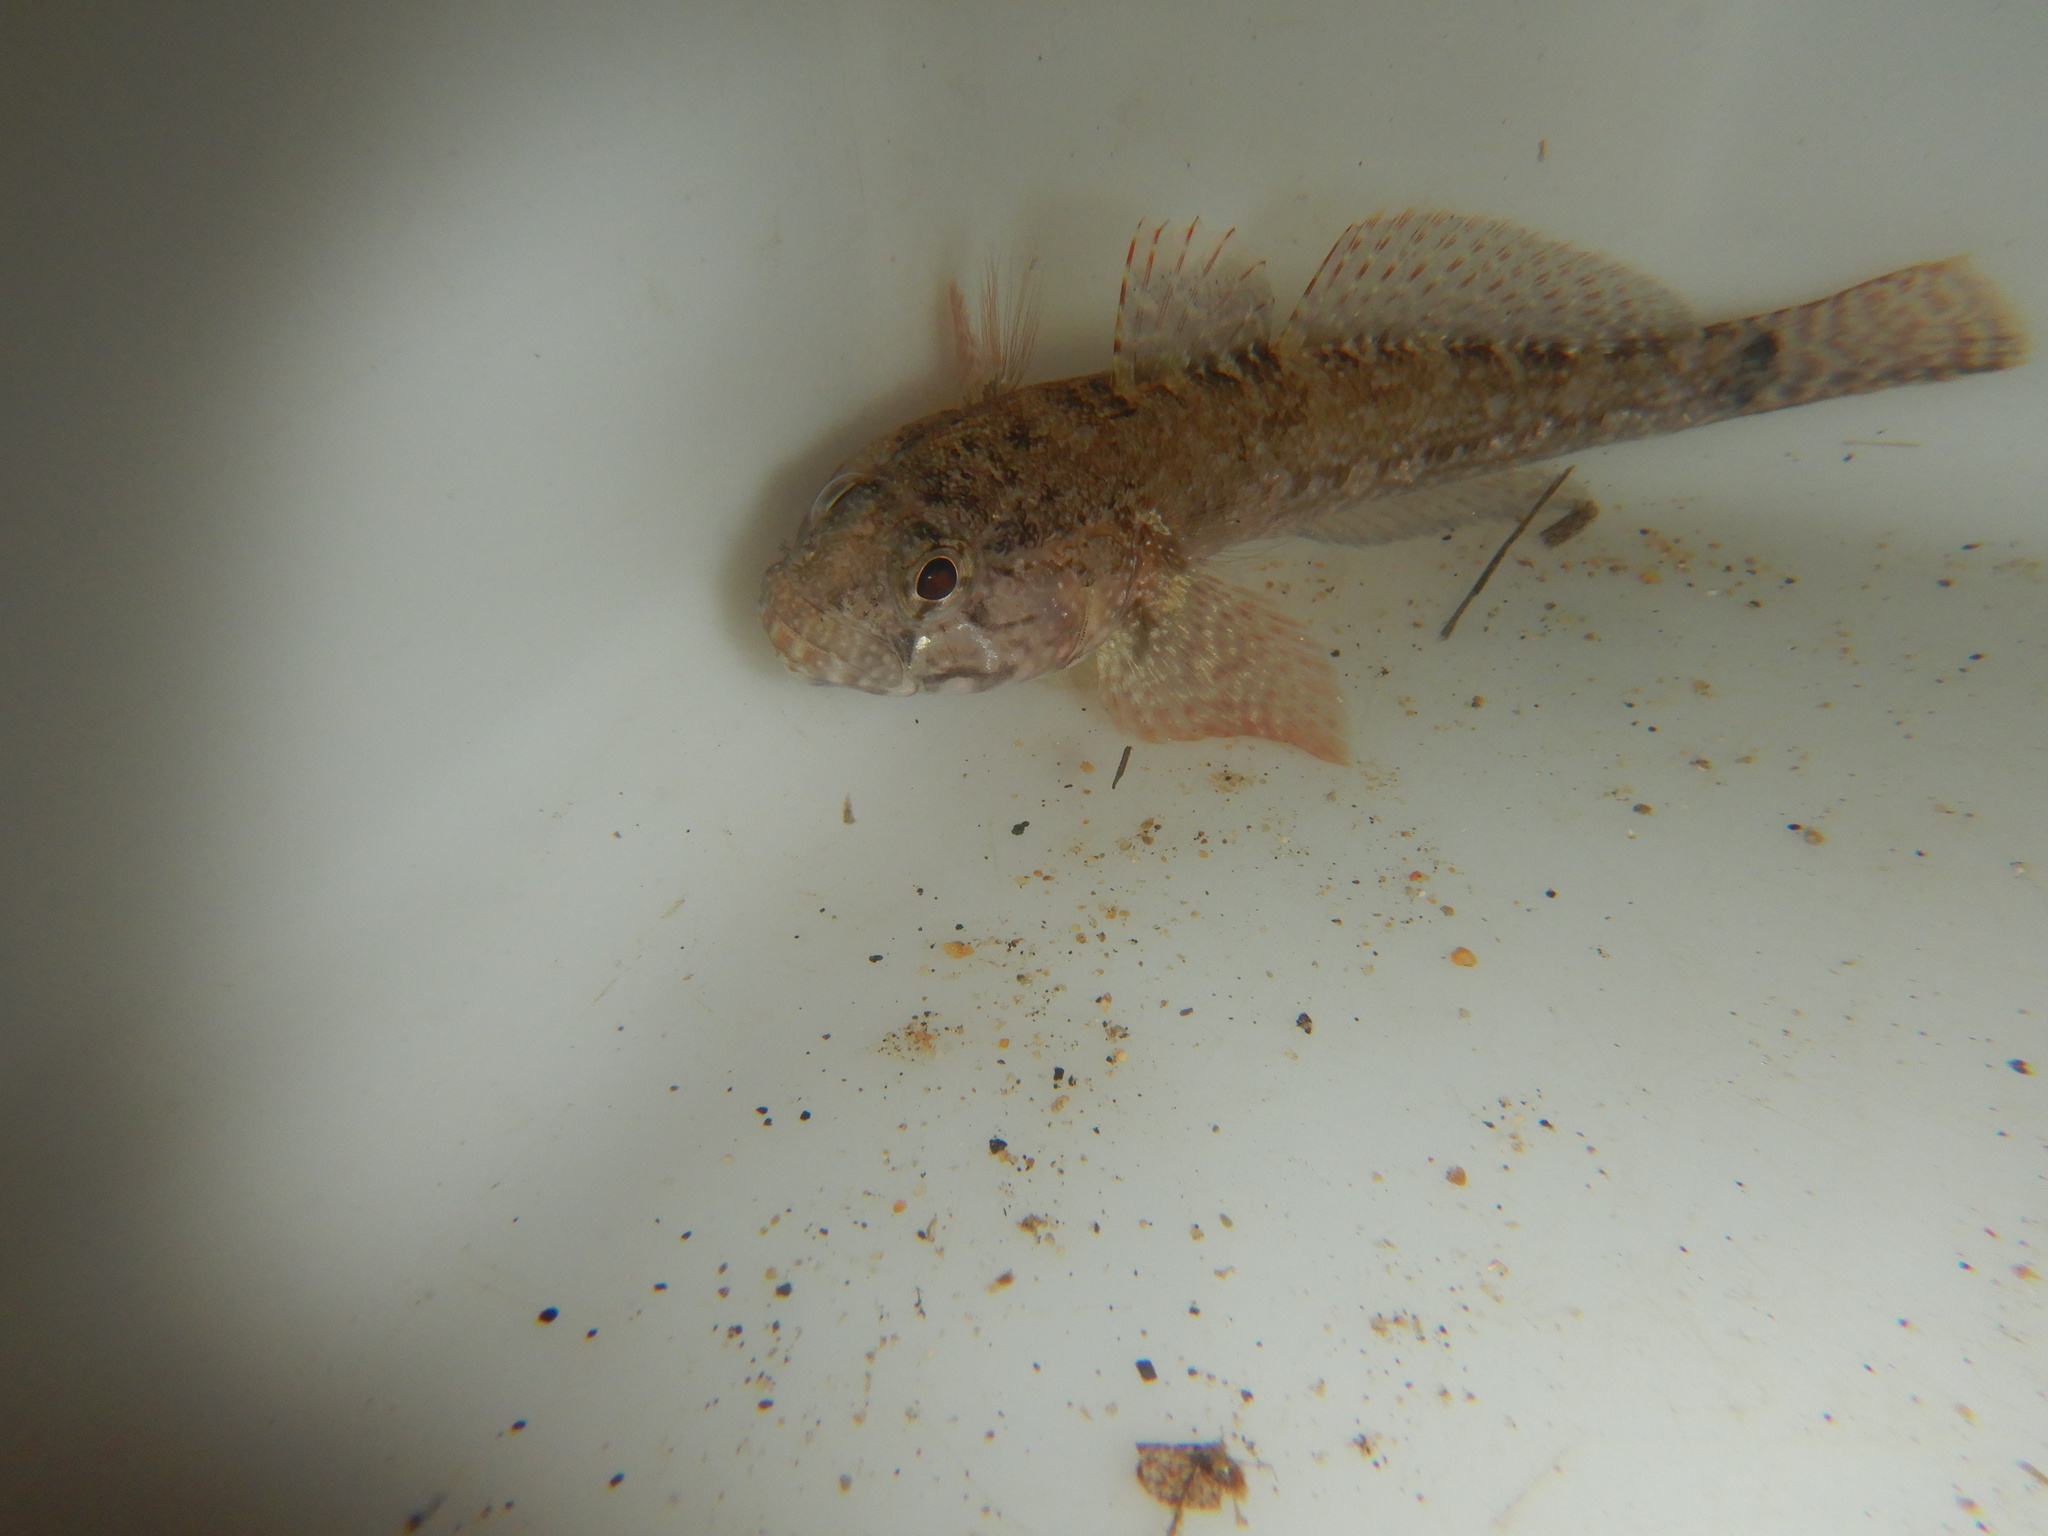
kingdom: Animalia
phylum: Chordata
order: Perciformes
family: Gobiidae
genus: Gobius
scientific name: Gobius paganellus
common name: Rock goby
